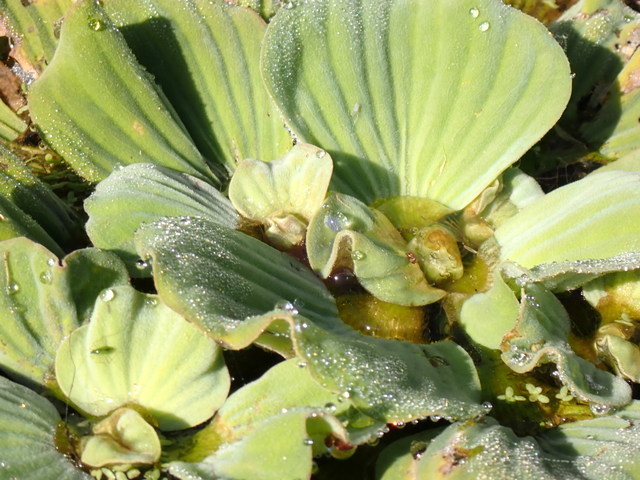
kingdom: Plantae
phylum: Tracheophyta
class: Liliopsida
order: Alismatales
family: Araceae
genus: Pistia
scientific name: Pistia stratiotes
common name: Water lettuce
